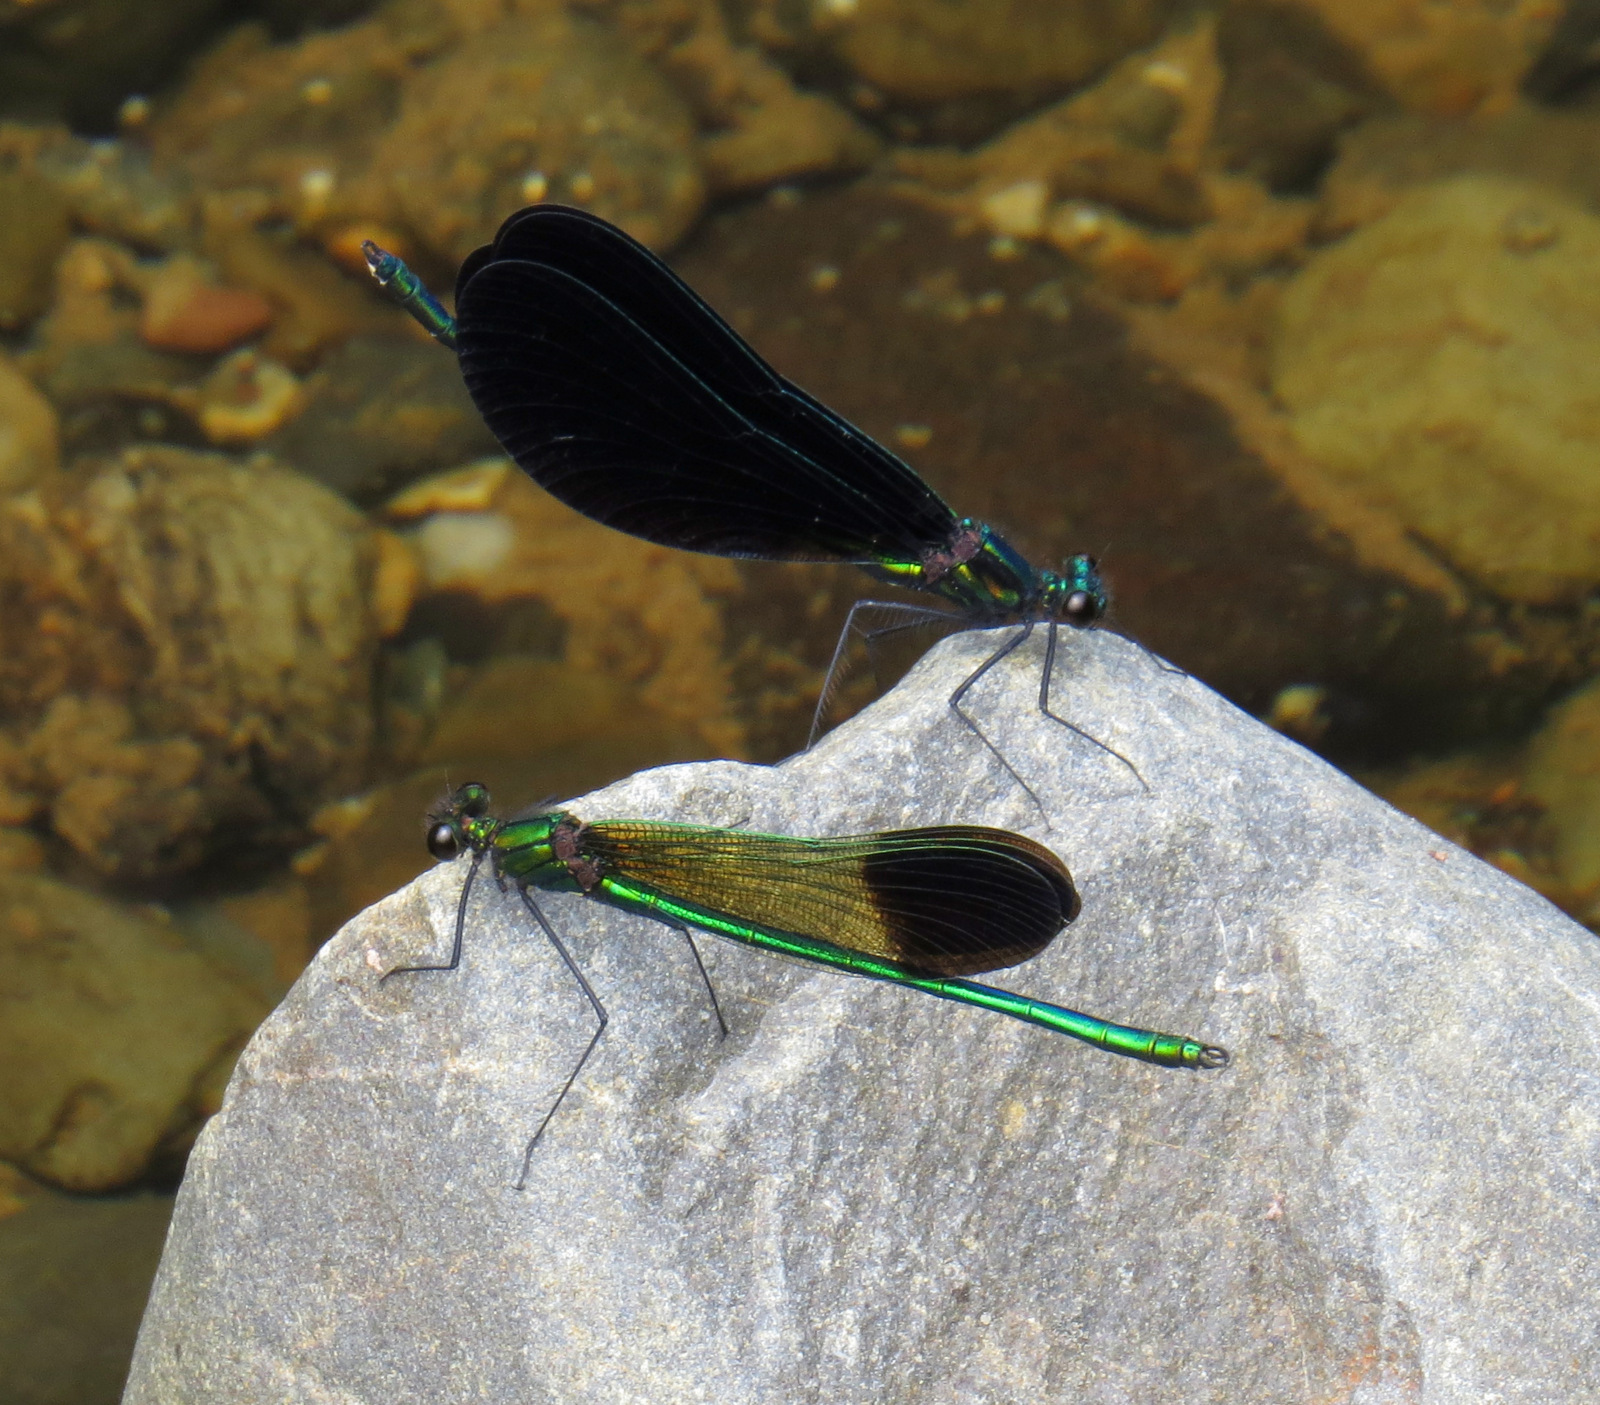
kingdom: Animalia
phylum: Arthropoda
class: Insecta
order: Odonata
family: Calopterygidae
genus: Calopteryx
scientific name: Calopteryx maculata
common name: Ebony jewelwing
